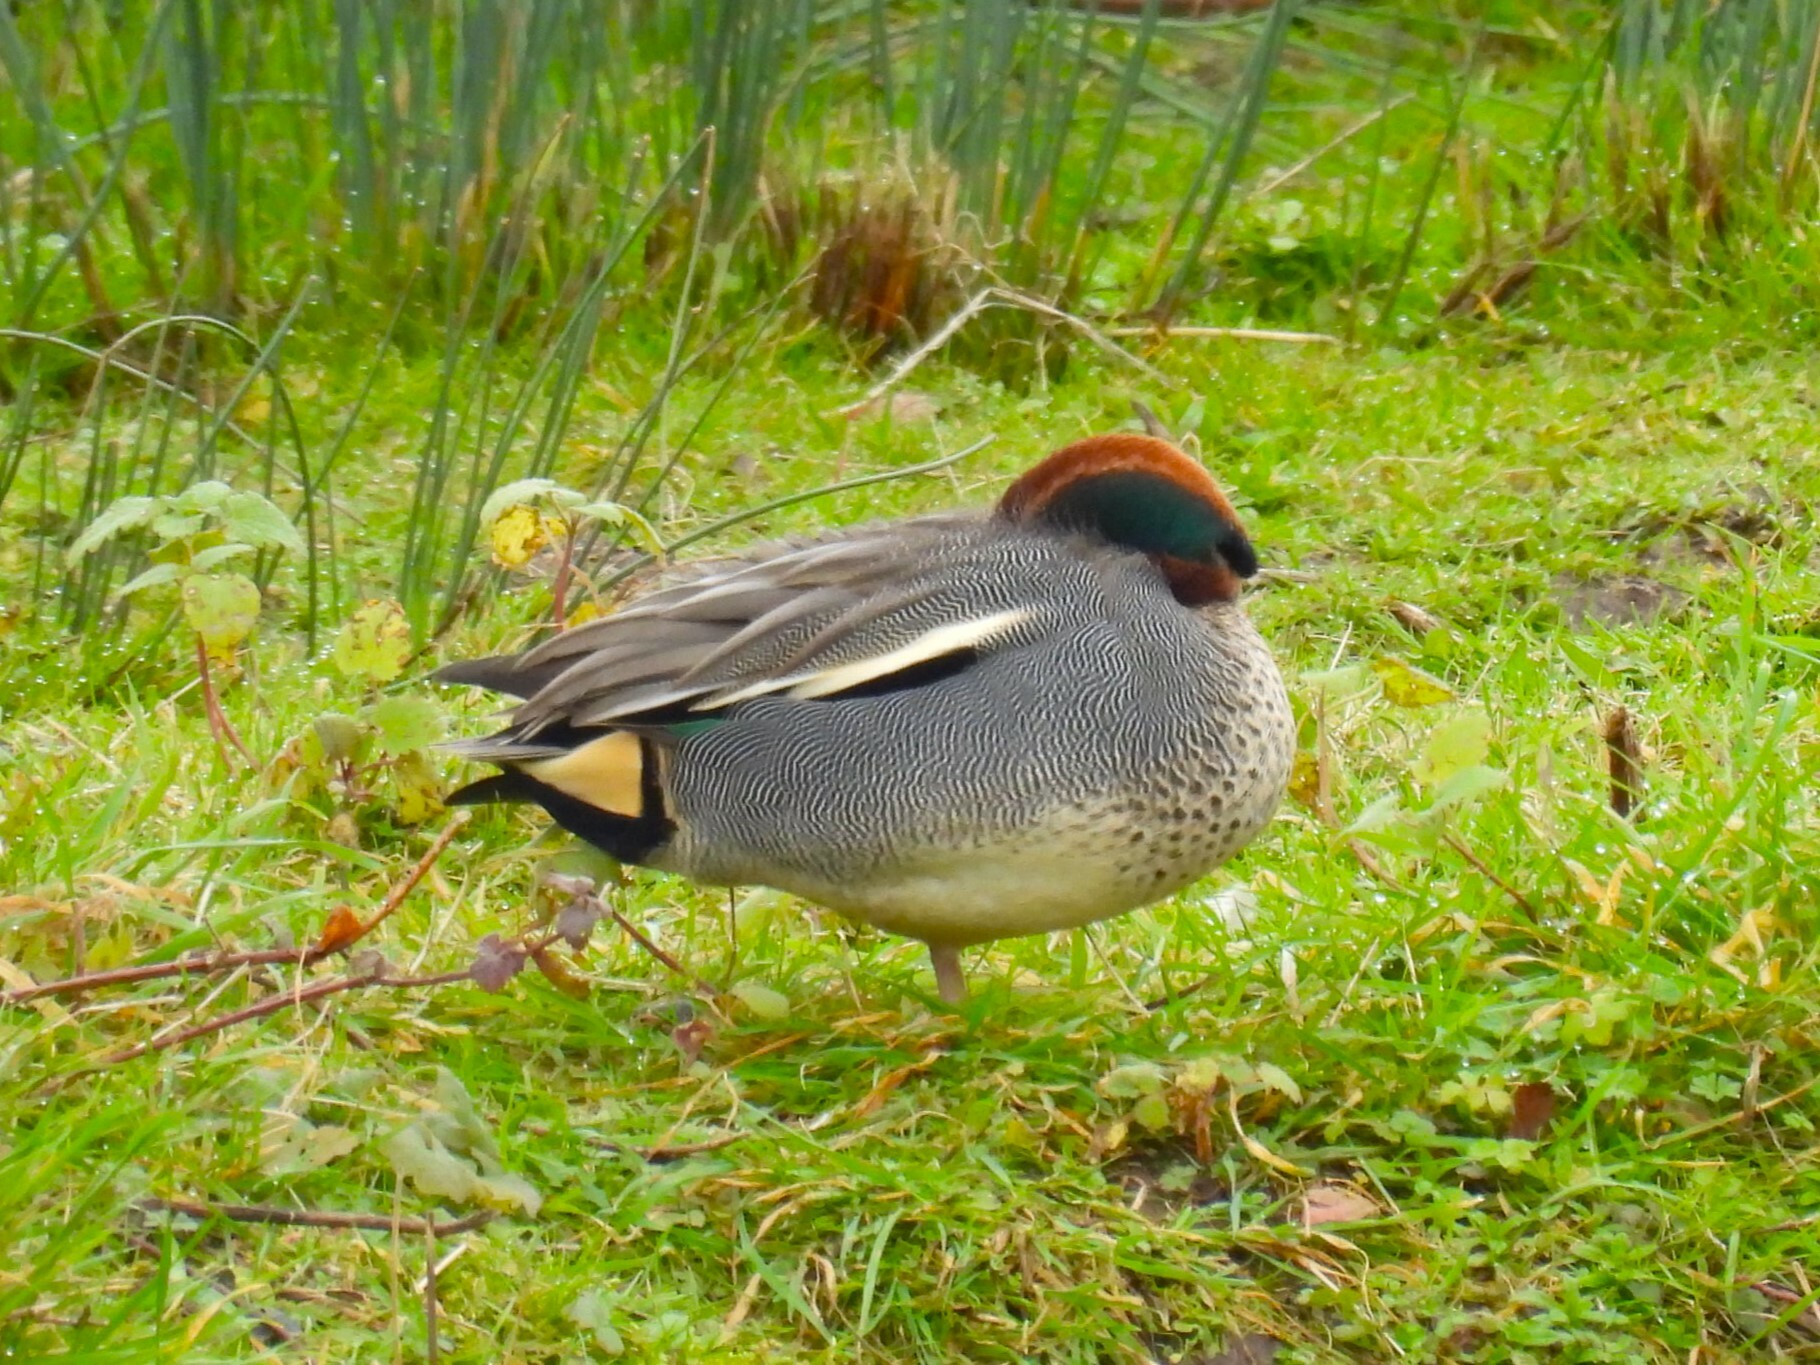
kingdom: Animalia
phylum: Chordata
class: Aves
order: Anseriformes
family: Anatidae
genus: Anas
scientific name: Anas crecca
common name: Eurasian teal
